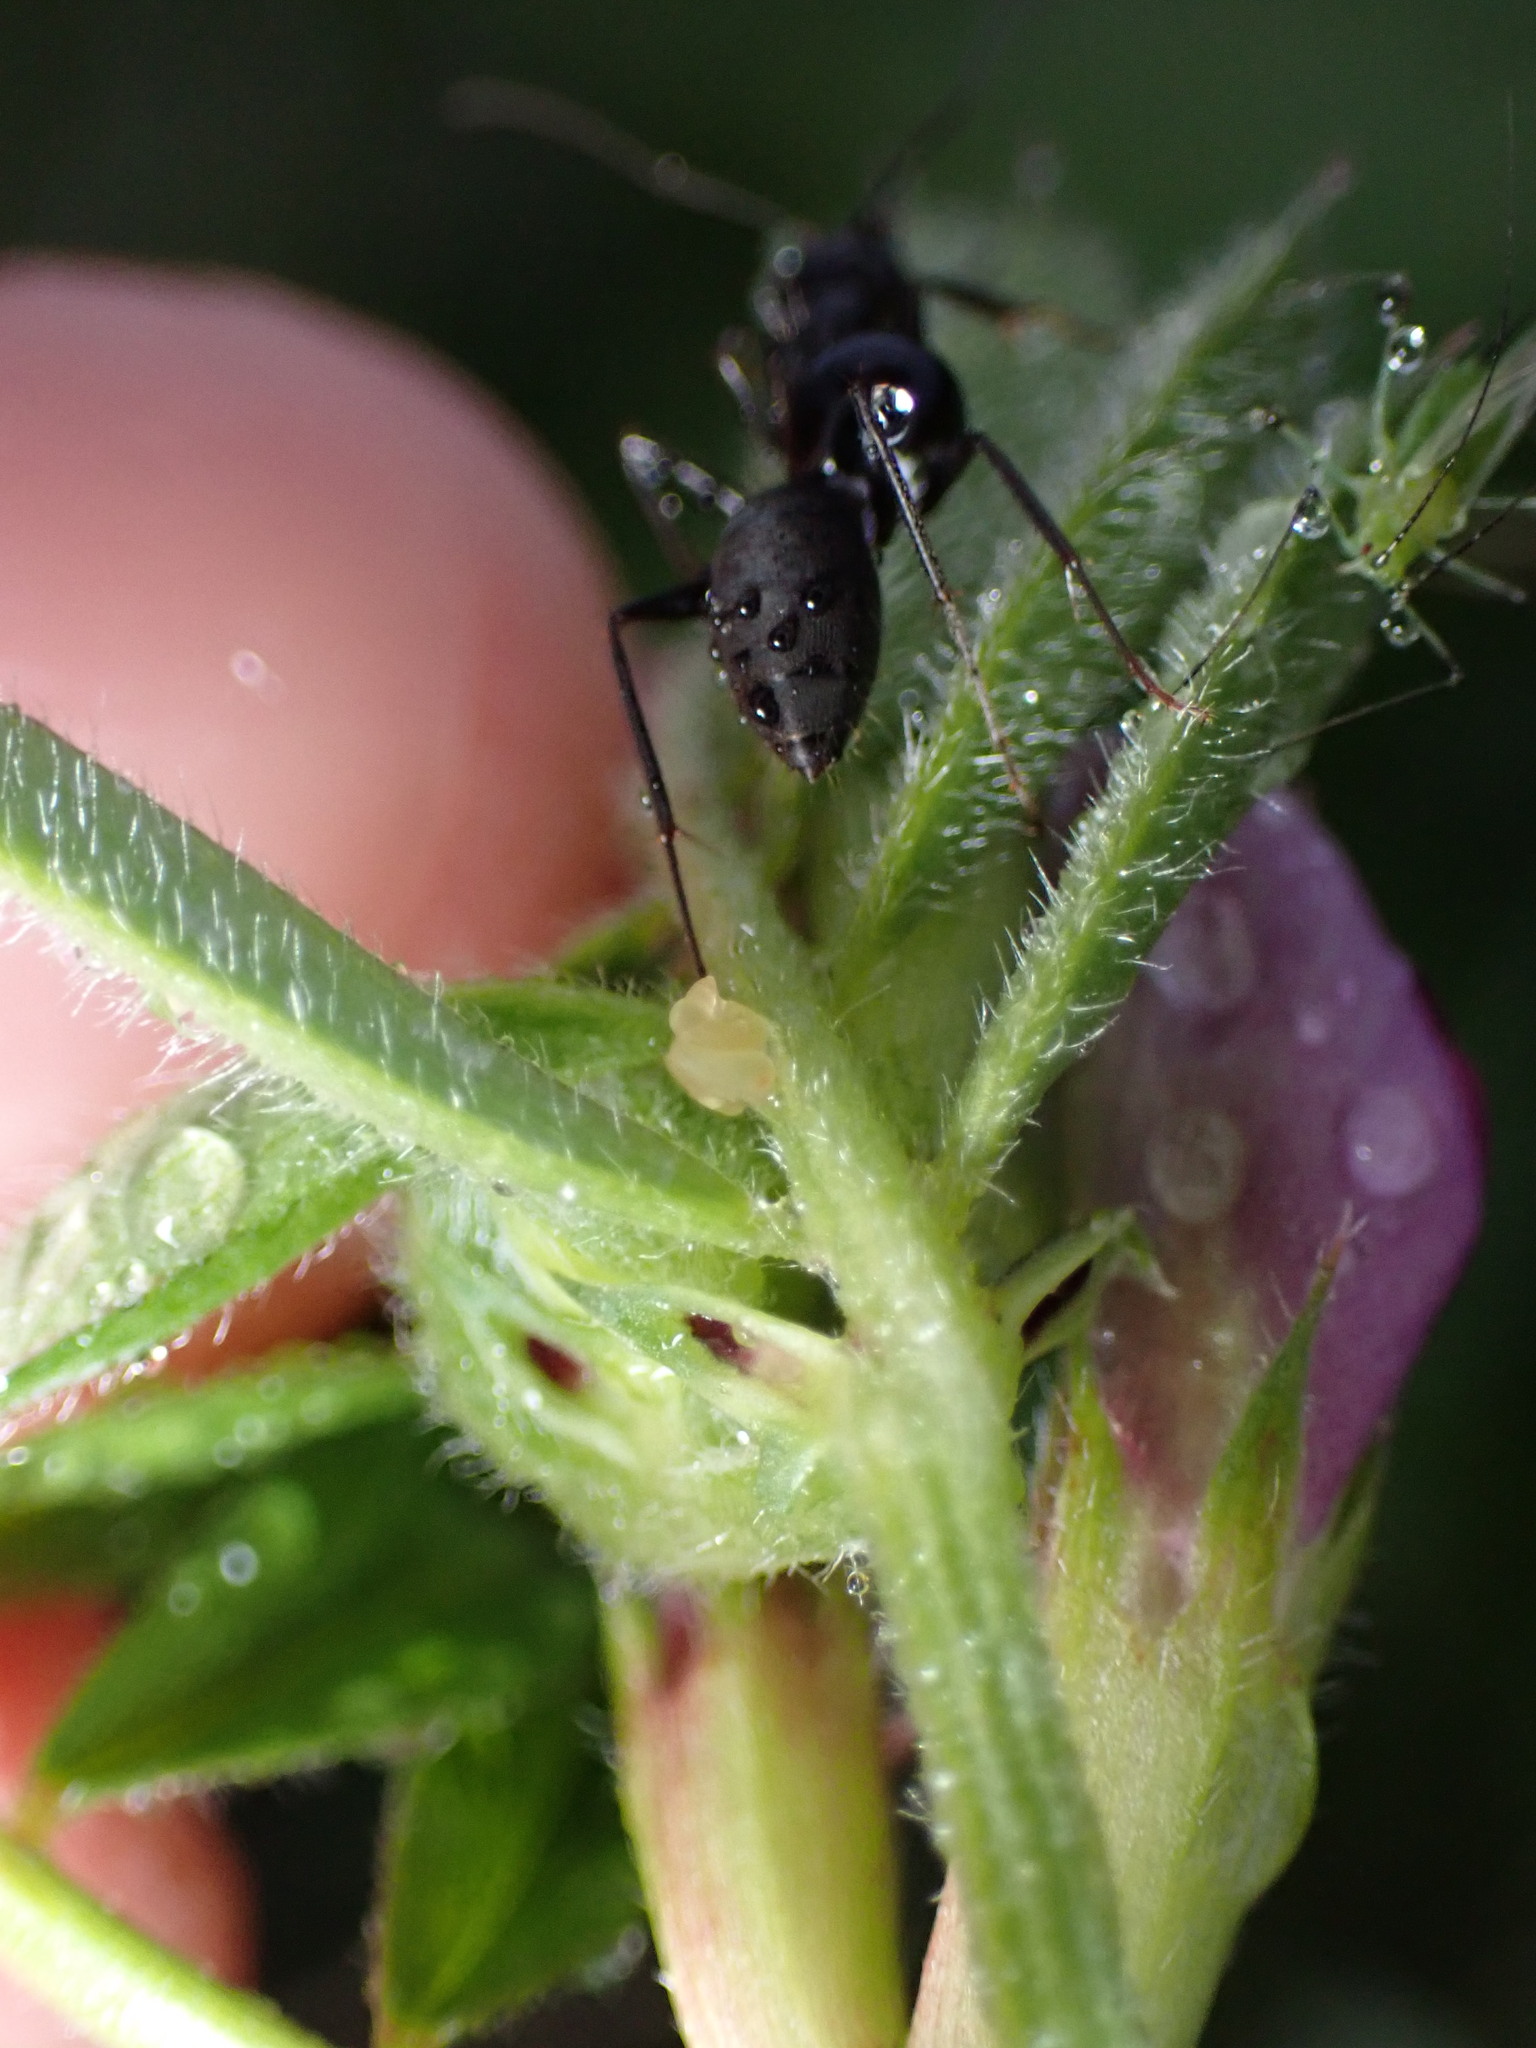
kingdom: Animalia
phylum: Arthropoda
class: Insecta
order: Hymenoptera
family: Formicidae
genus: Camponotus
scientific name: Camponotus japonicus
